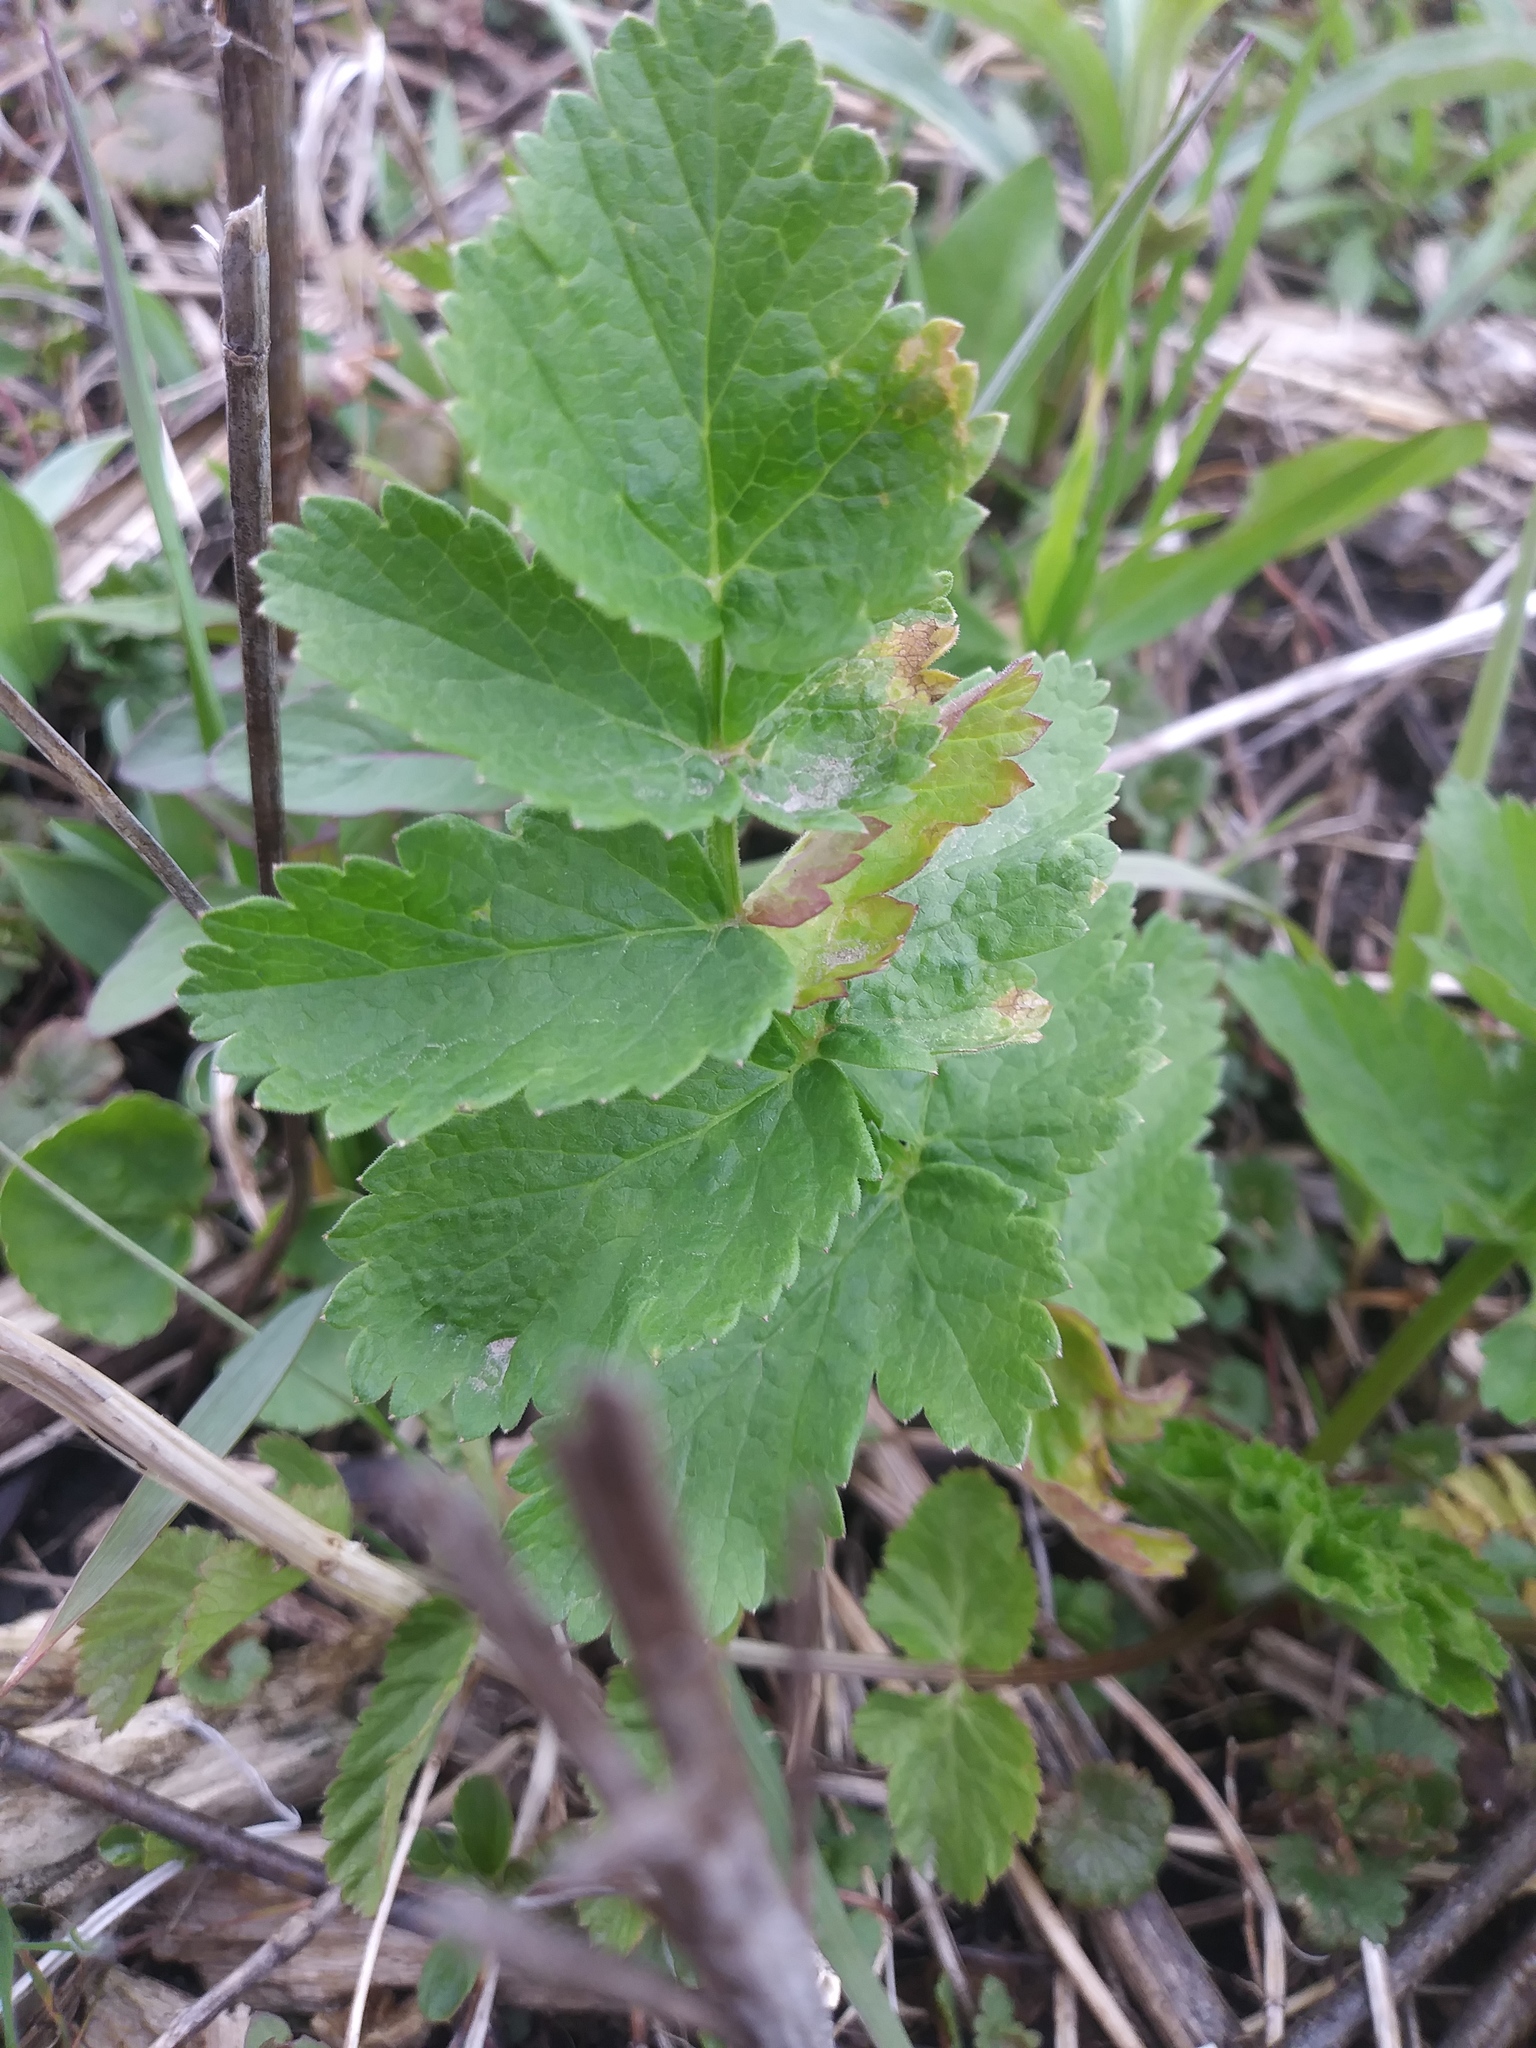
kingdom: Plantae
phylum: Tracheophyta
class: Magnoliopsida
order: Apiales
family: Apiaceae
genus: Pastinaca
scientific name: Pastinaca sativa
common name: Wild parsnip
